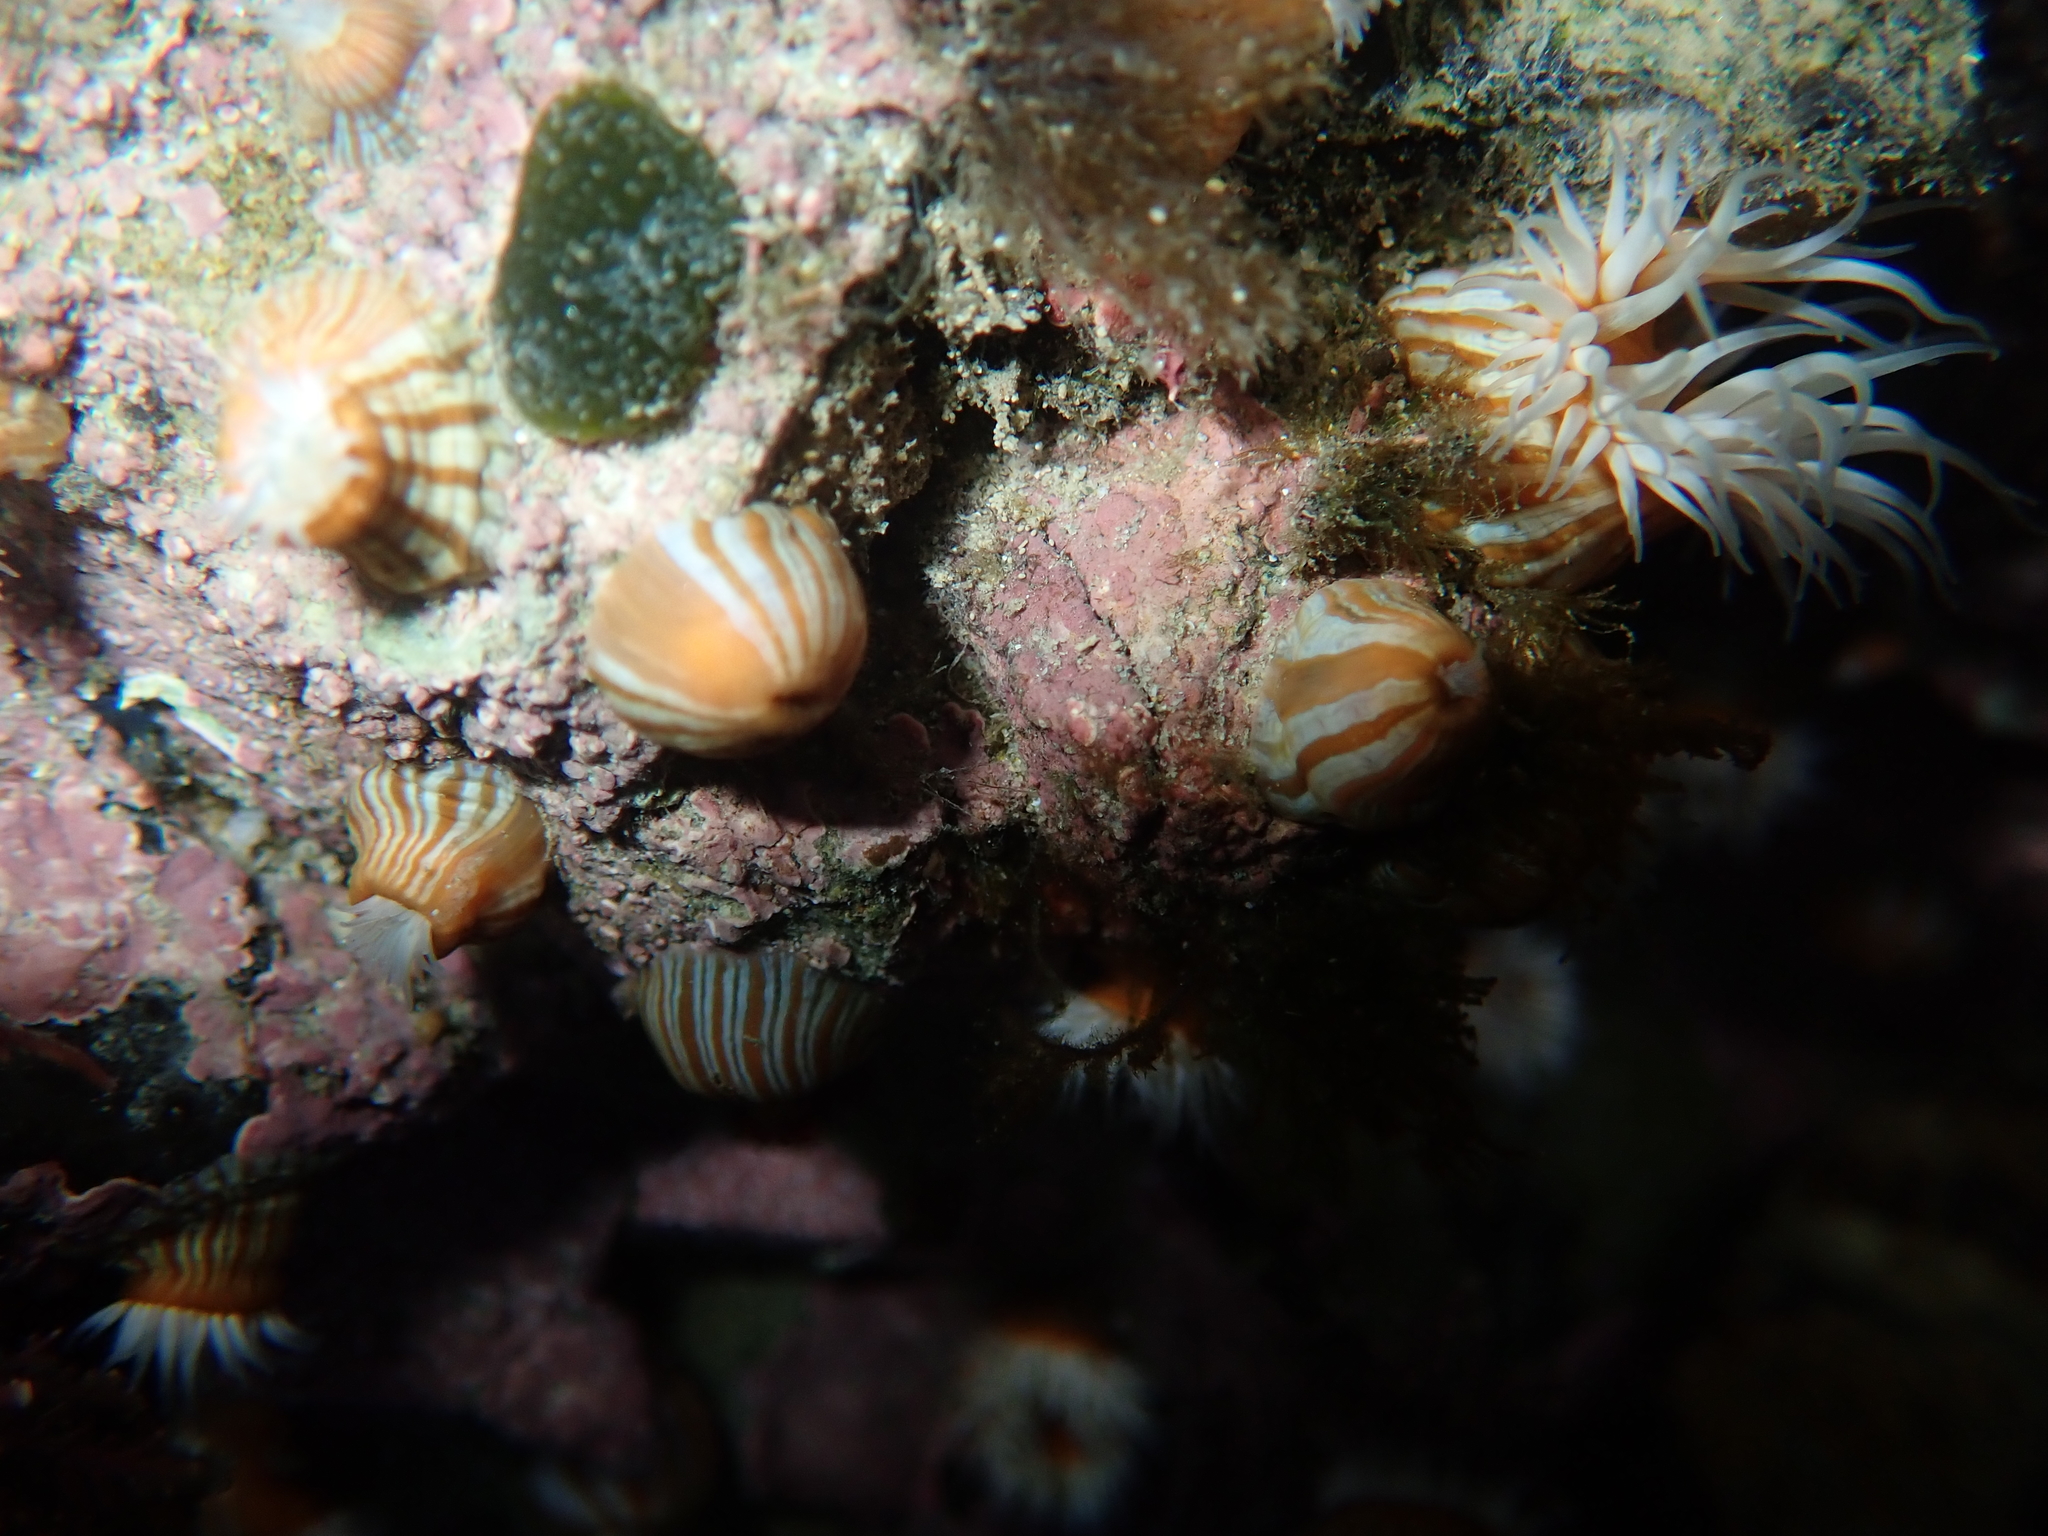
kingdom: Animalia
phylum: Cnidaria
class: Anthozoa
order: Actiniaria
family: Sagartiidae
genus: Anthothoe
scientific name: Anthothoe albocincta
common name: Orange striped anemone
